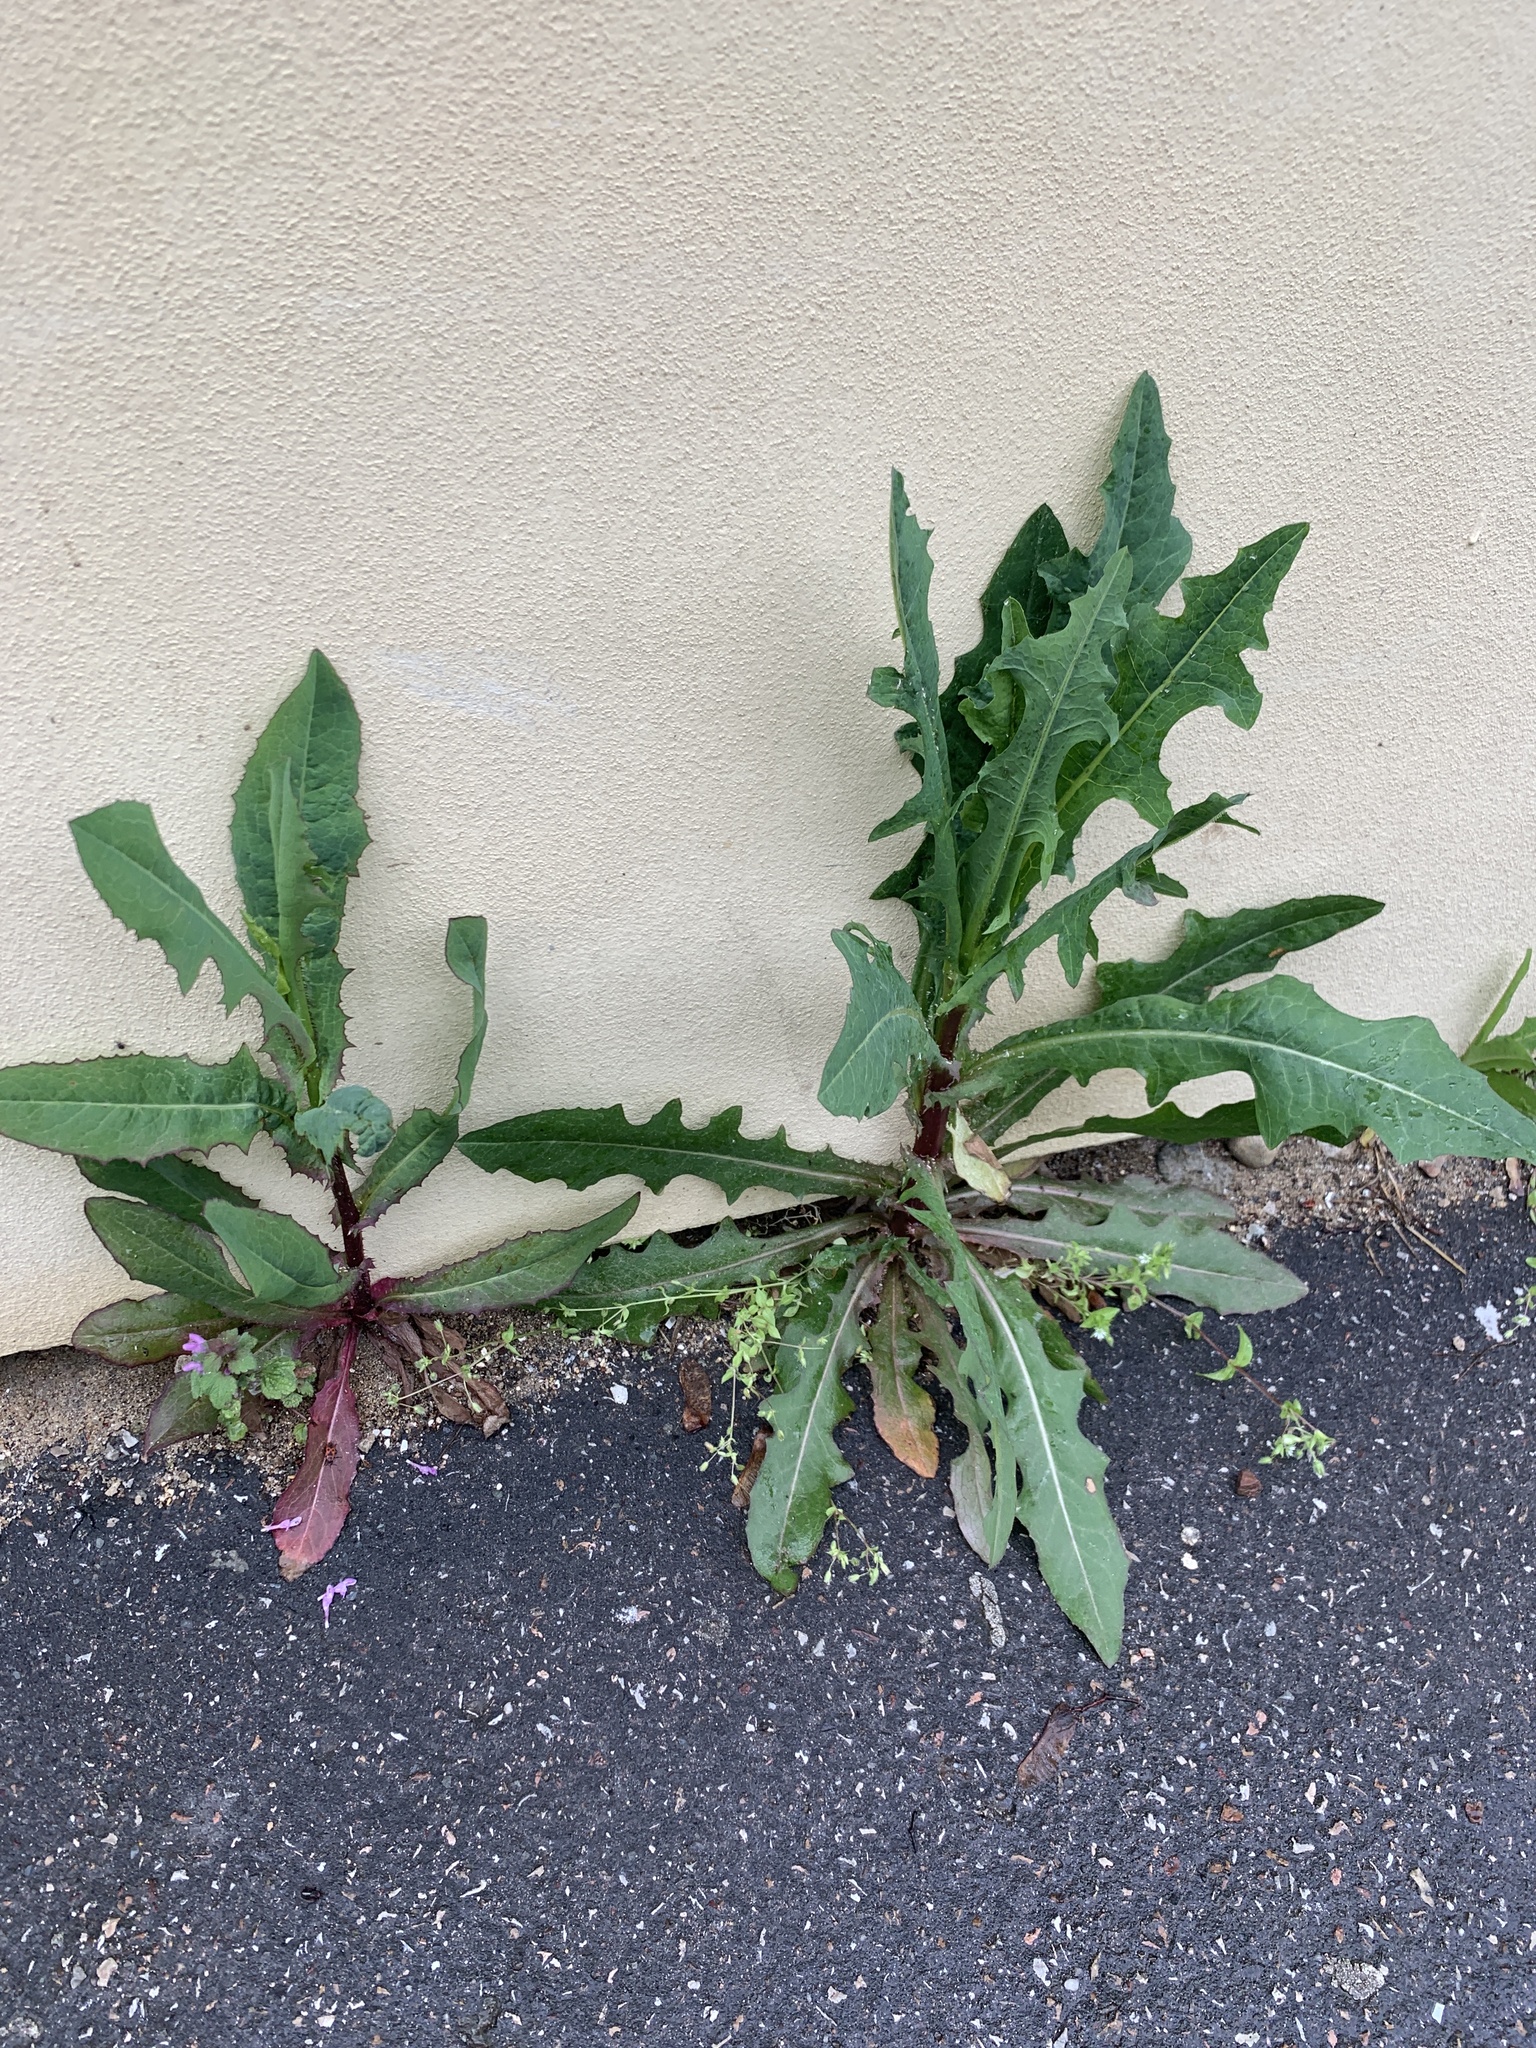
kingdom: Plantae
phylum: Tracheophyta
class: Magnoliopsida
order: Asterales
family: Asteraceae
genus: Lactuca
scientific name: Lactuca serriola
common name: Prickly lettuce
